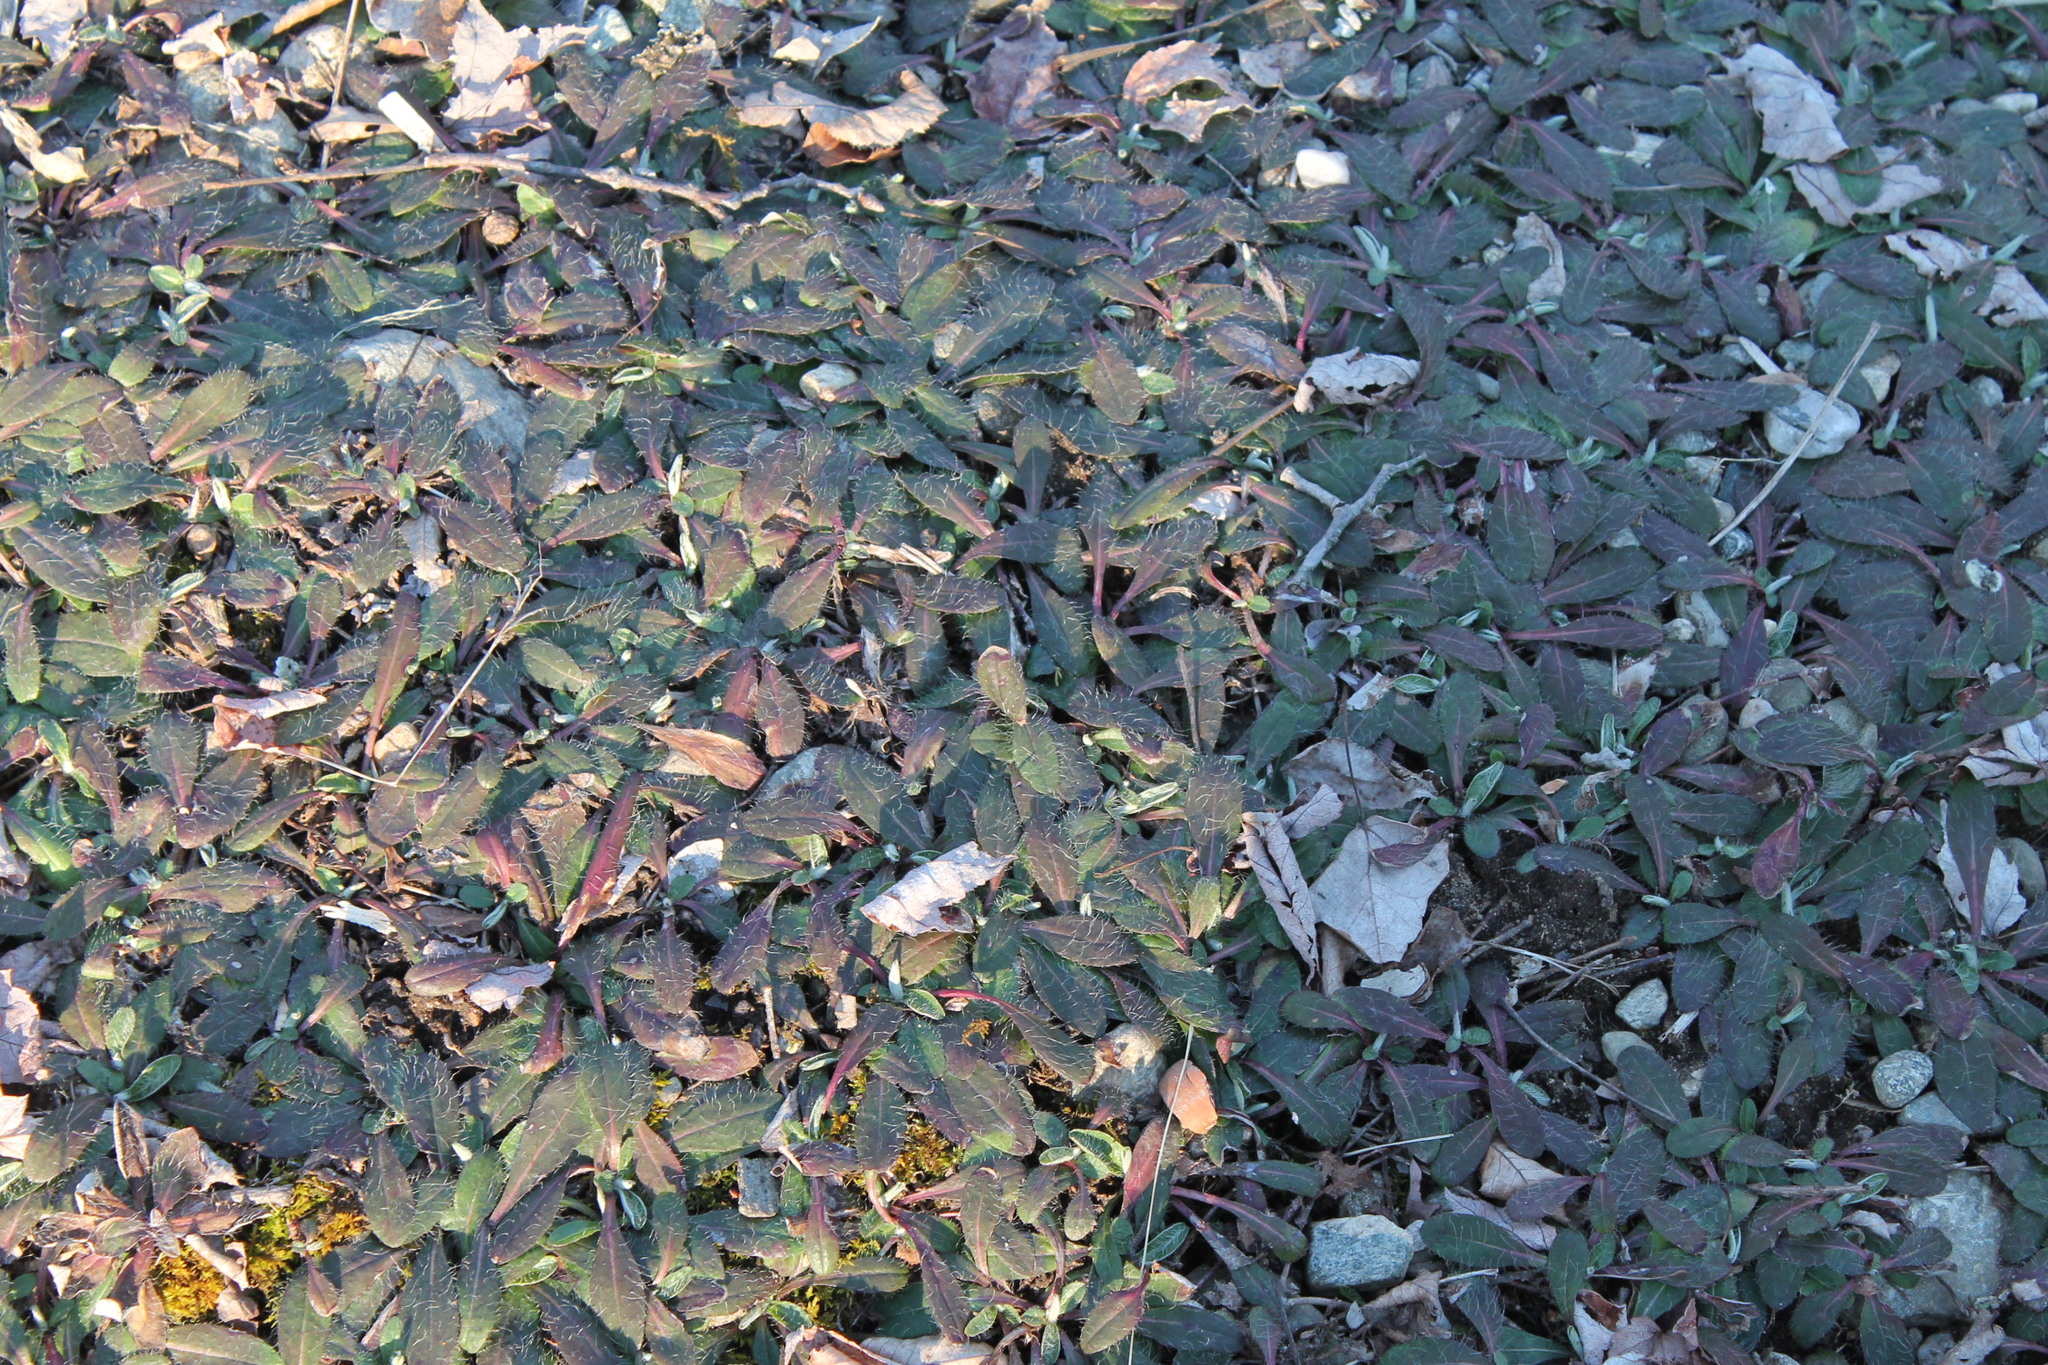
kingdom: Plantae
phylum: Tracheophyta
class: Magnoliopsida
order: Asterales
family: Asteraceae
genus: Pilosella
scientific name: Pilosella officinarum
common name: Mouse-ear hawkweed
